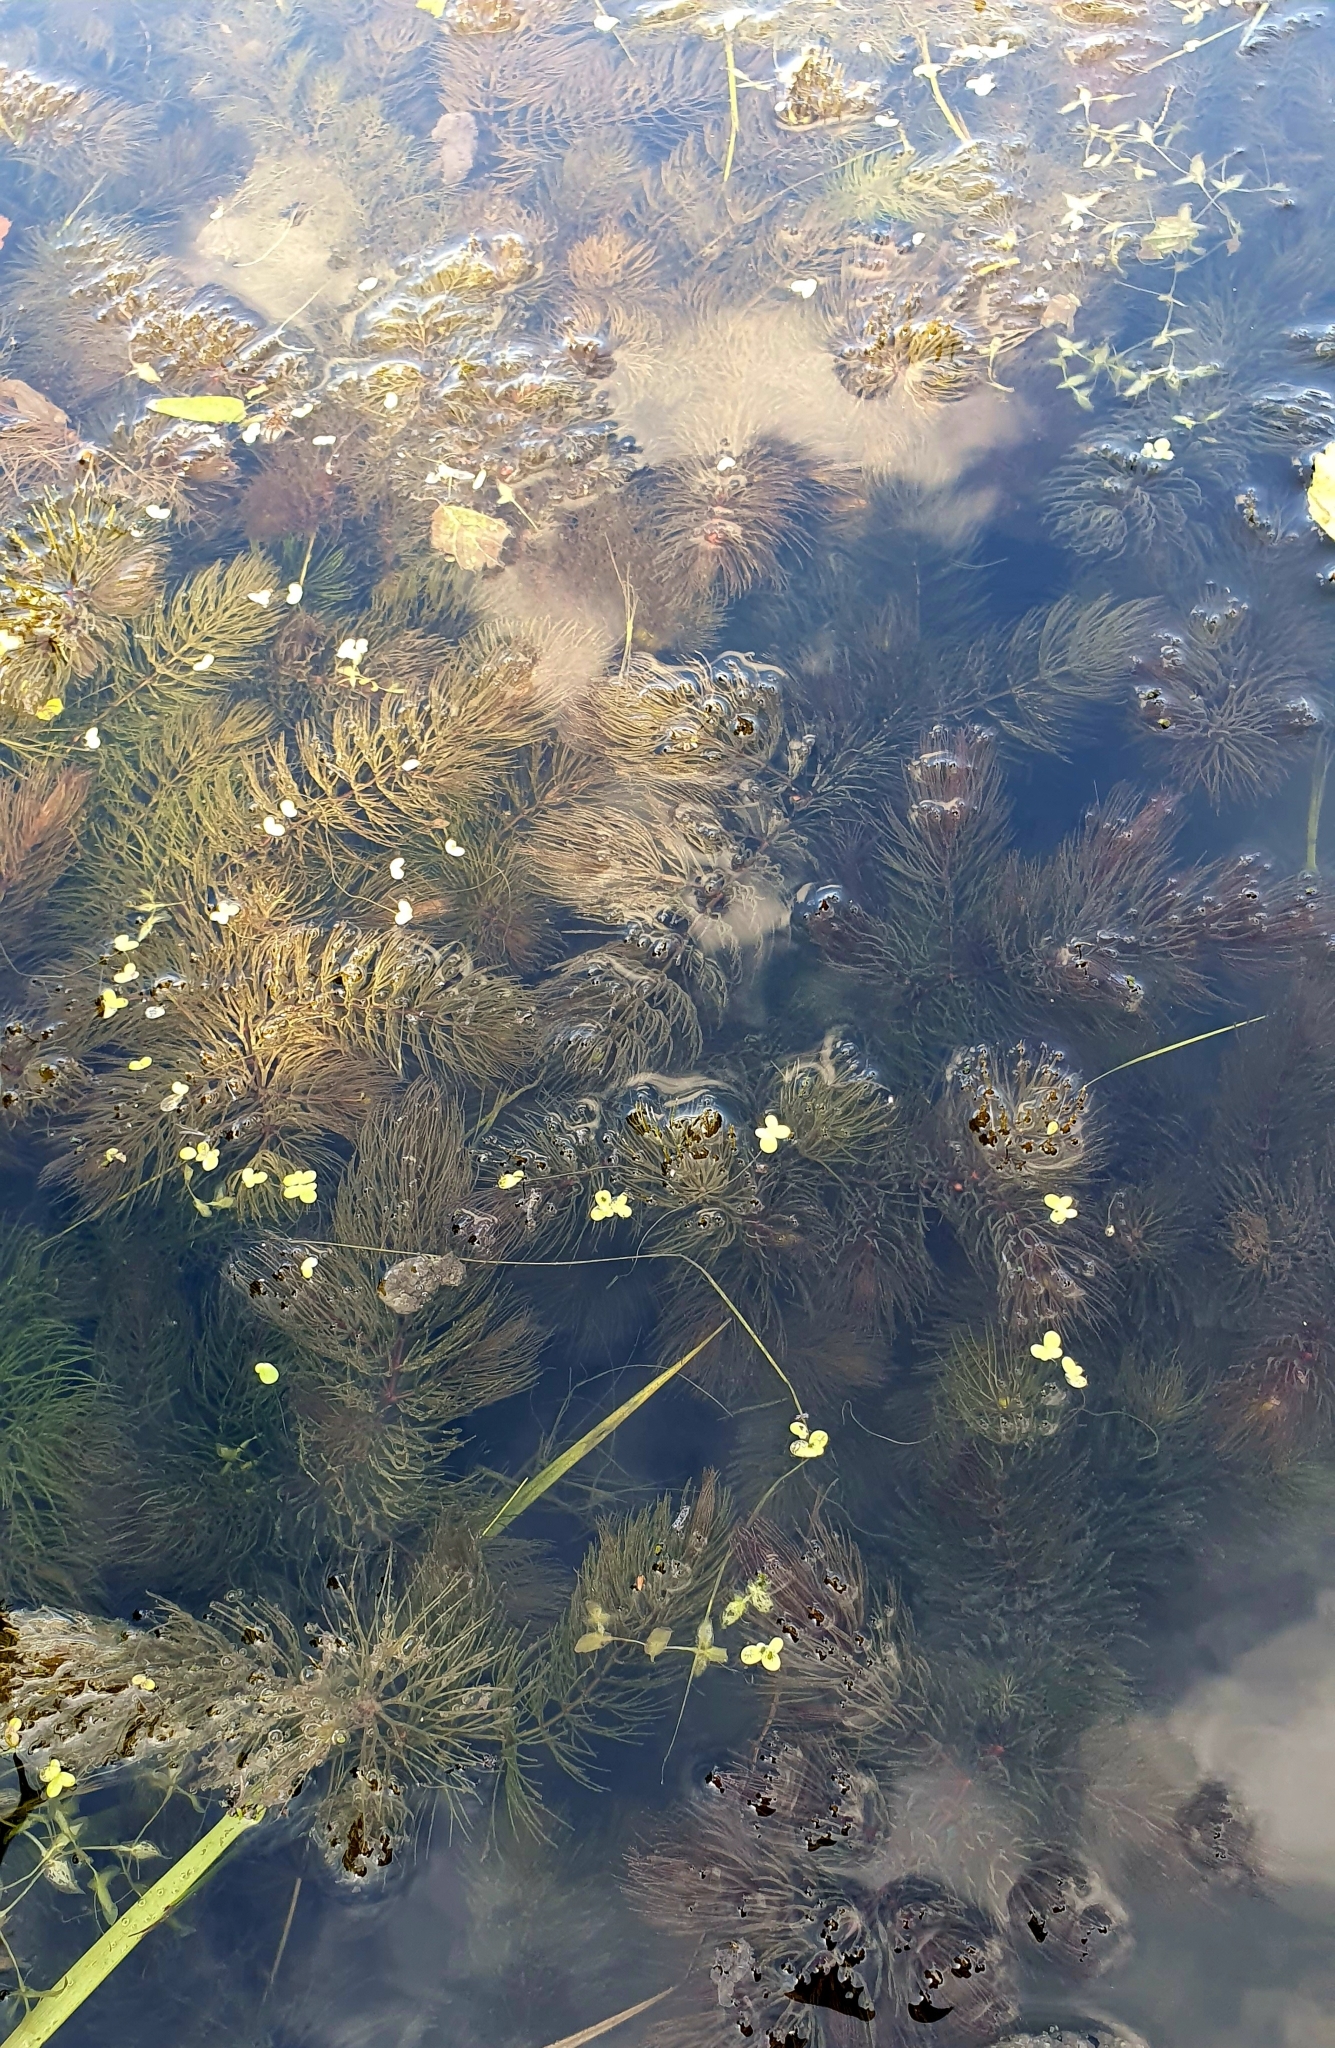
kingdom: Plantae
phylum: Tracheophyta
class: Magnoliopsida
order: Ceratophyllales
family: Ceratophyllaceae
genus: Ceratophyllum
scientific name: Ceratophyllum demersum
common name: Rigid hornwort
